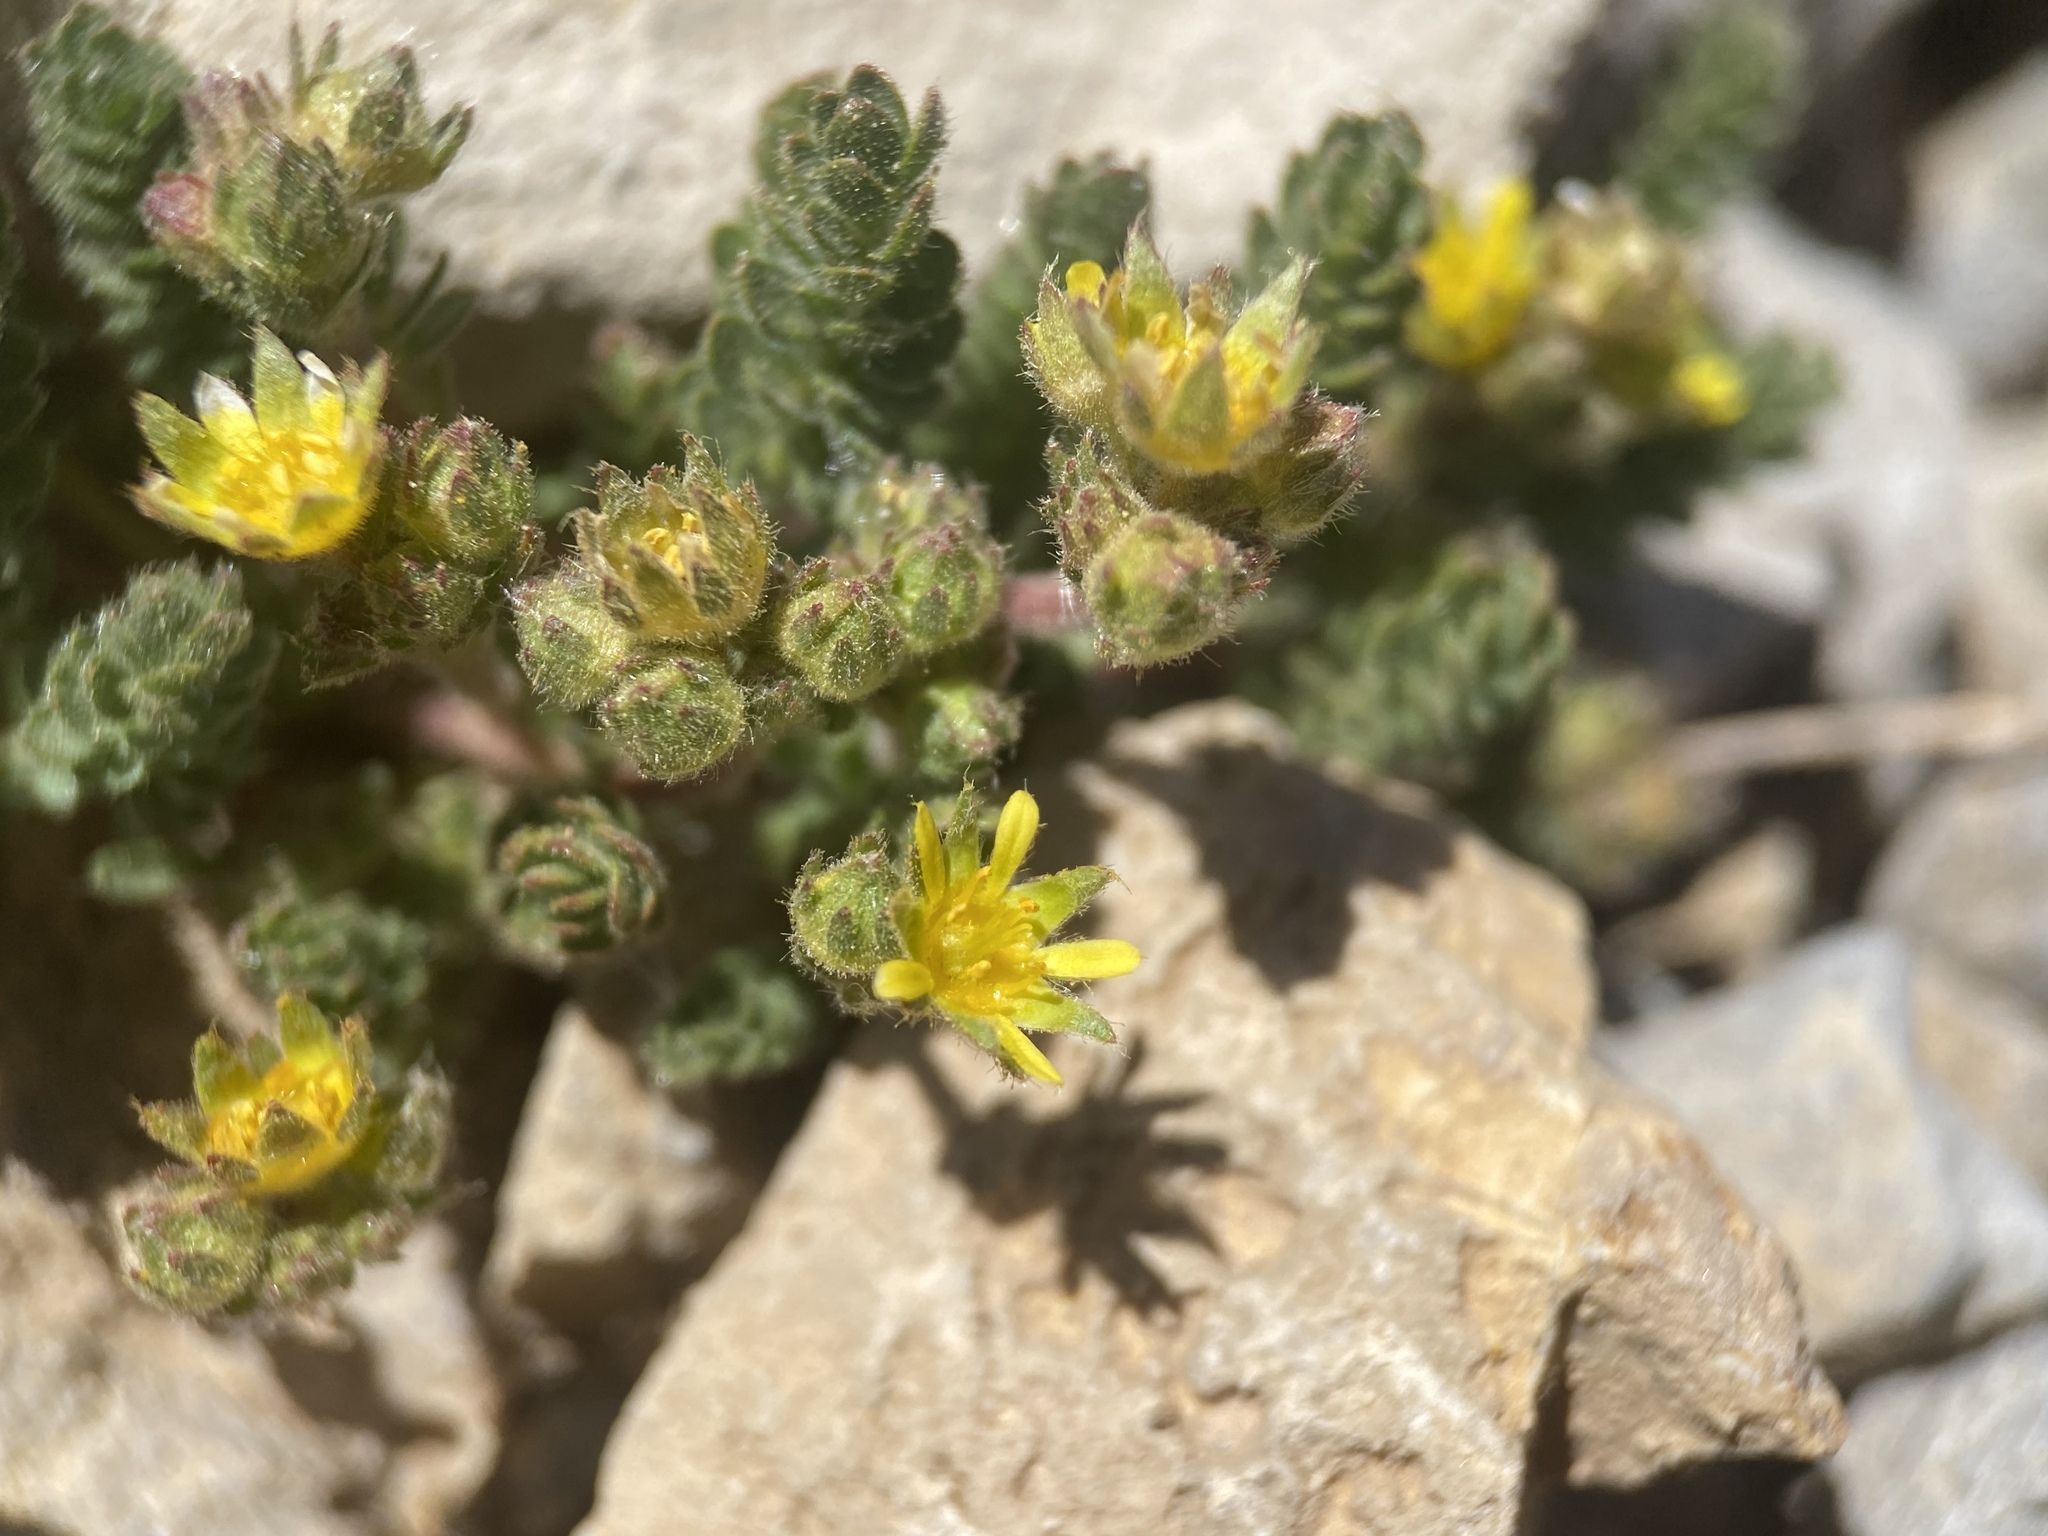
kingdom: Plantae
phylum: Tracheophyta
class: Magnoliopsida
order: Rosales
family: Rosaceae
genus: Potentilla
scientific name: Potentilla cryptocaulis
